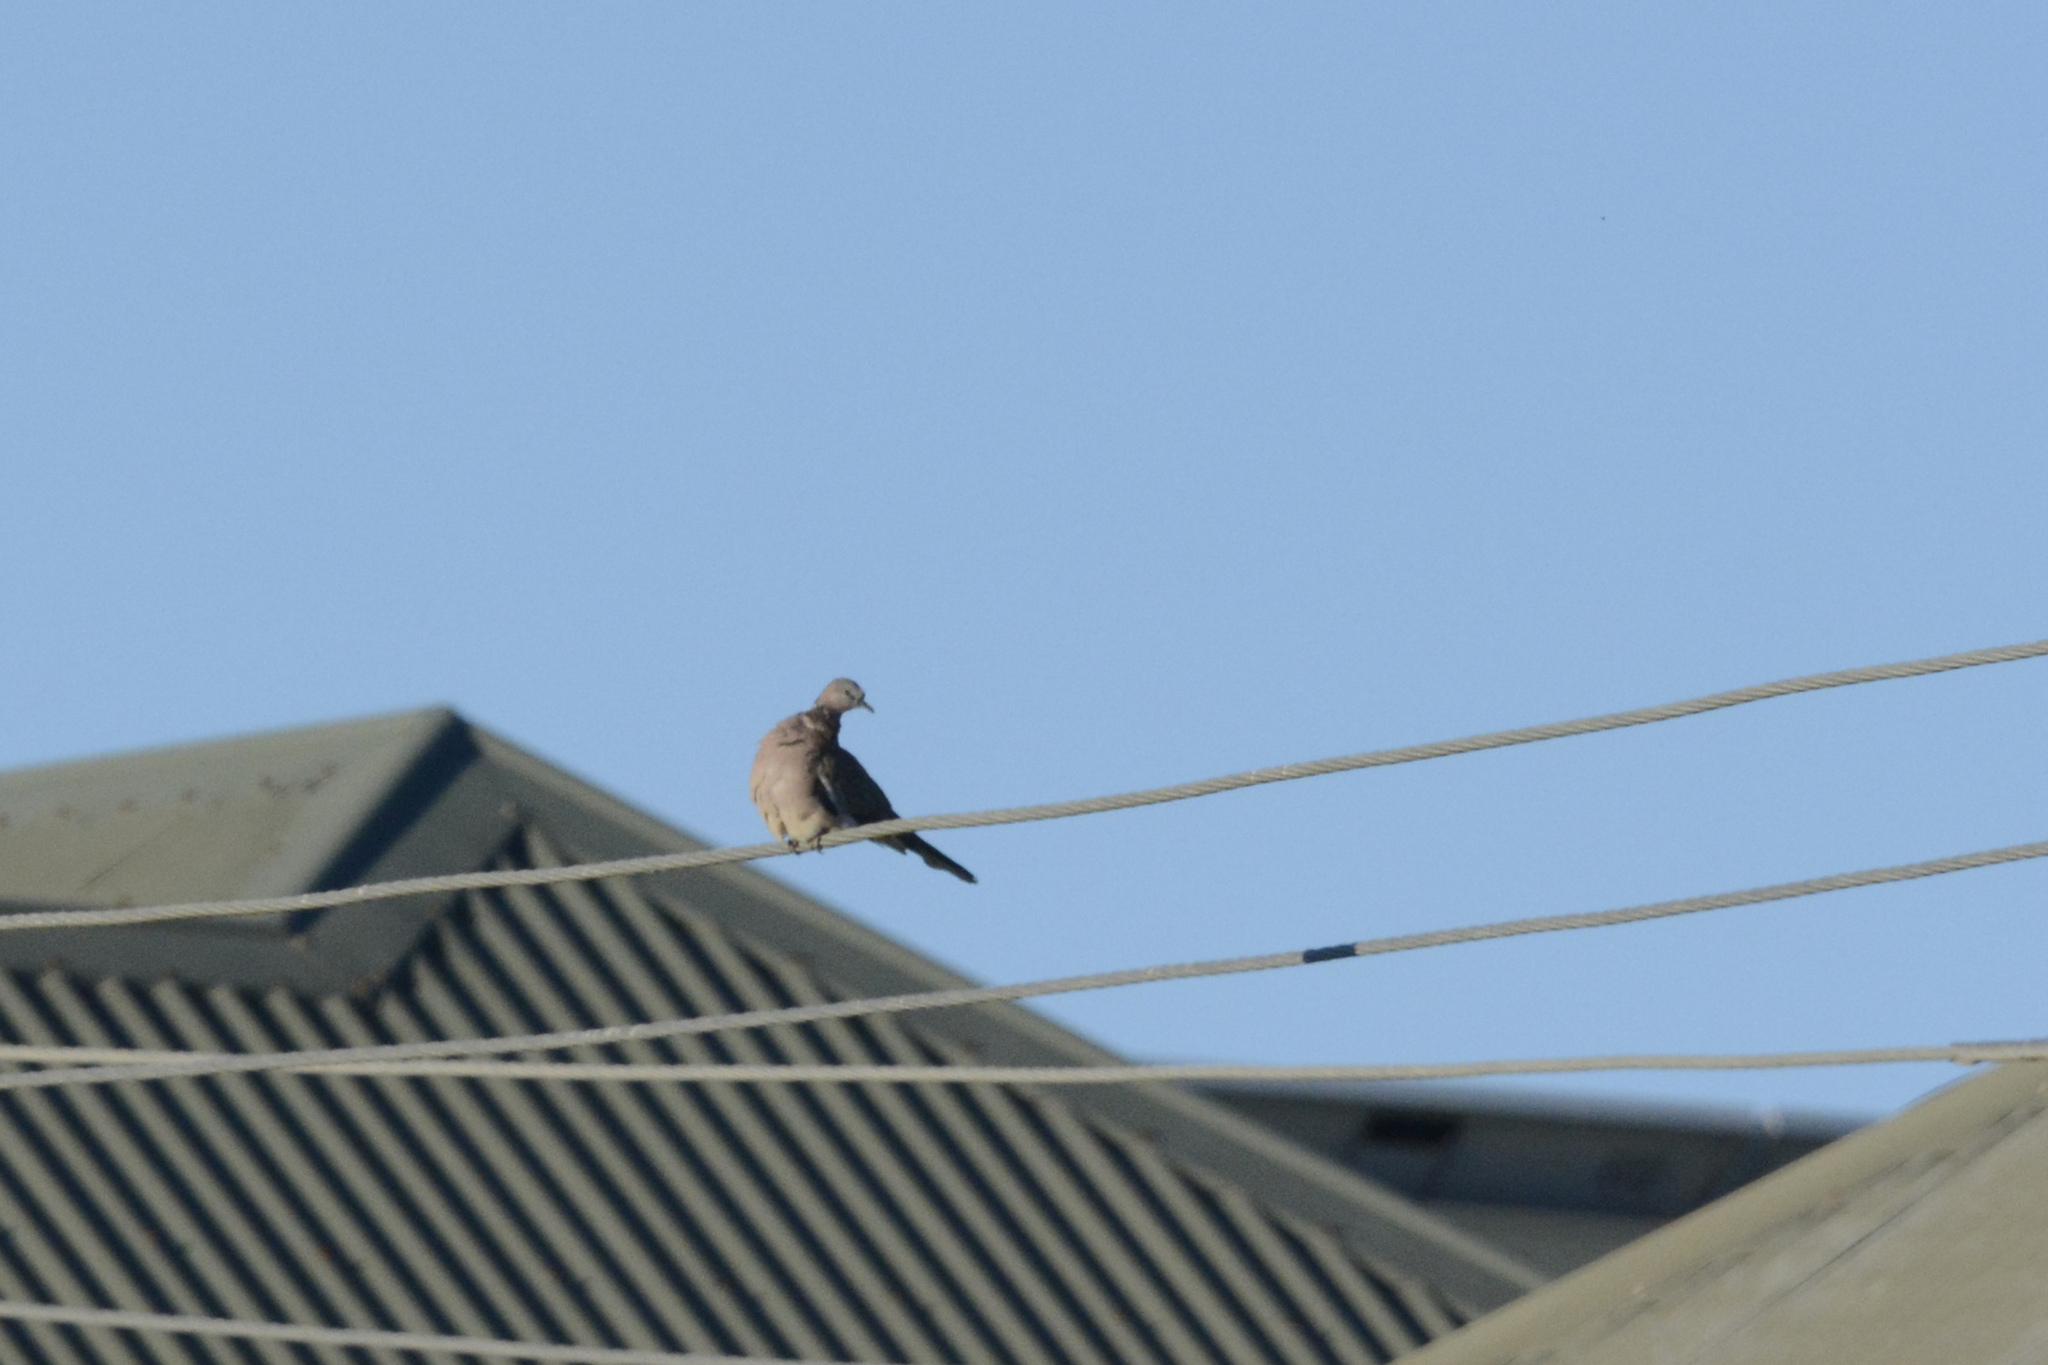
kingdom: Animalia
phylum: Chordata
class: Aves
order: Columbiformes
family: Columbidae
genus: Spilopelia
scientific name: Spilopelia chinensis
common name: Spotted dove
